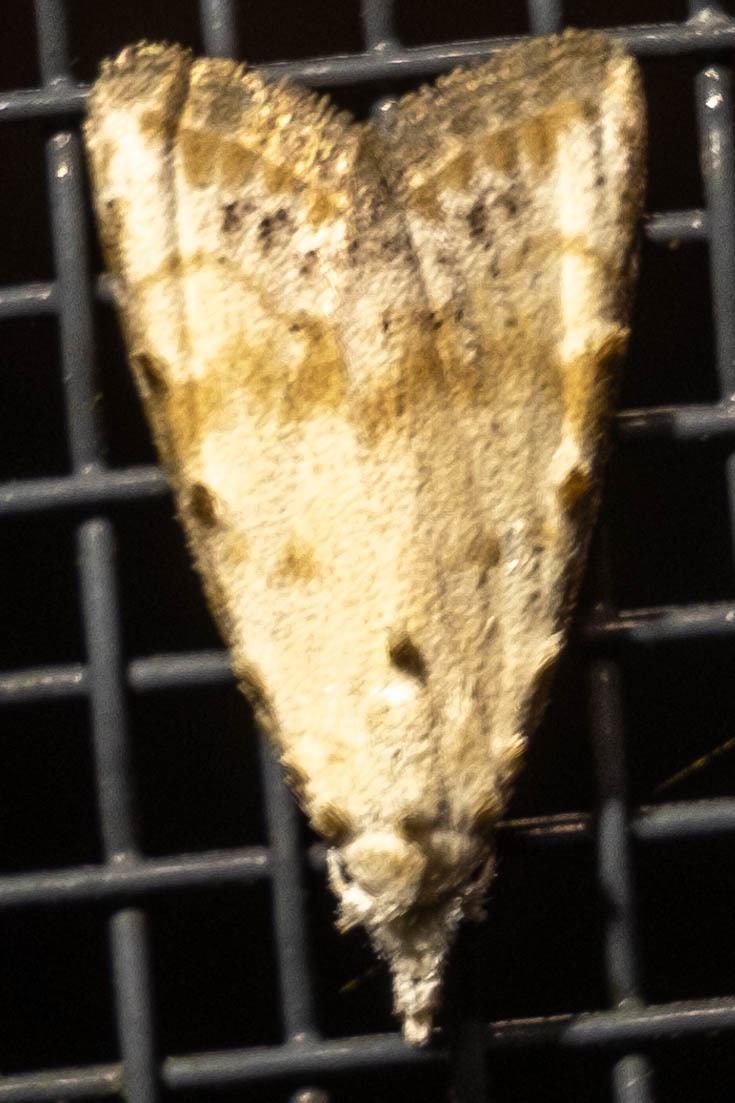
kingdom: Animalia
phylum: Arthropoda
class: Insecta
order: Lepidoptera
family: Nolidae
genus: Nola
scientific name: Nola cereella
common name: Sorghum webworm moth
